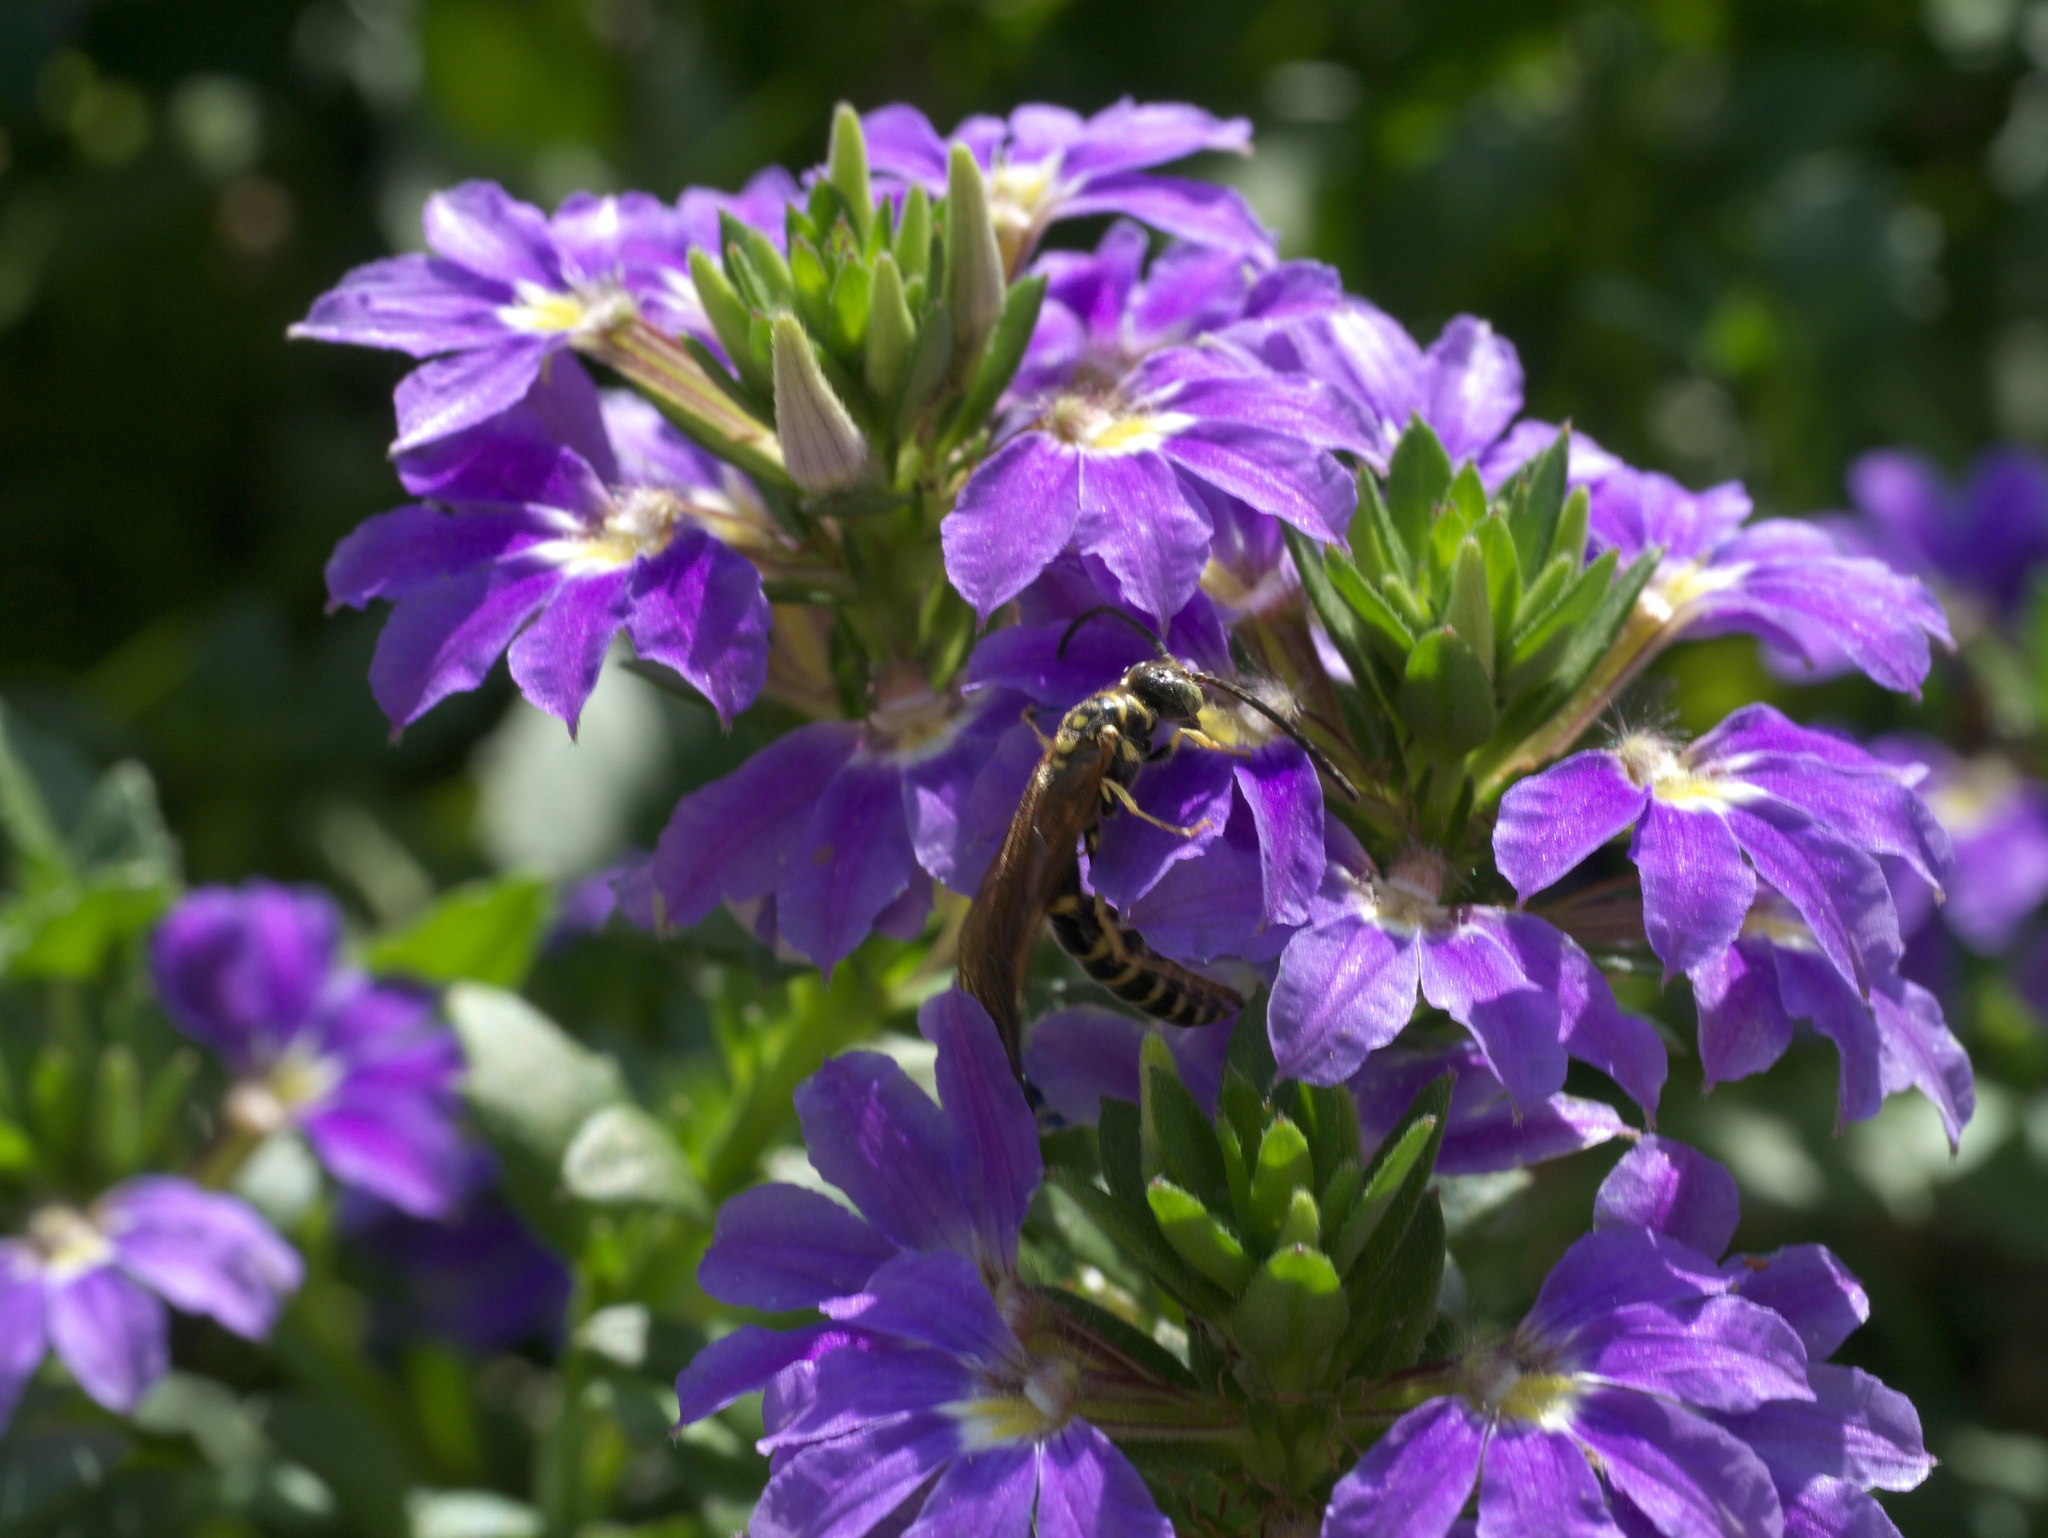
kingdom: Animalia
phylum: Arthropoda
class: Insecta
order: Hymenoptera
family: Tiphiidae
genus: Myzinum
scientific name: Myzinum quinquecinctum
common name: Five-banded thynnid wasp
